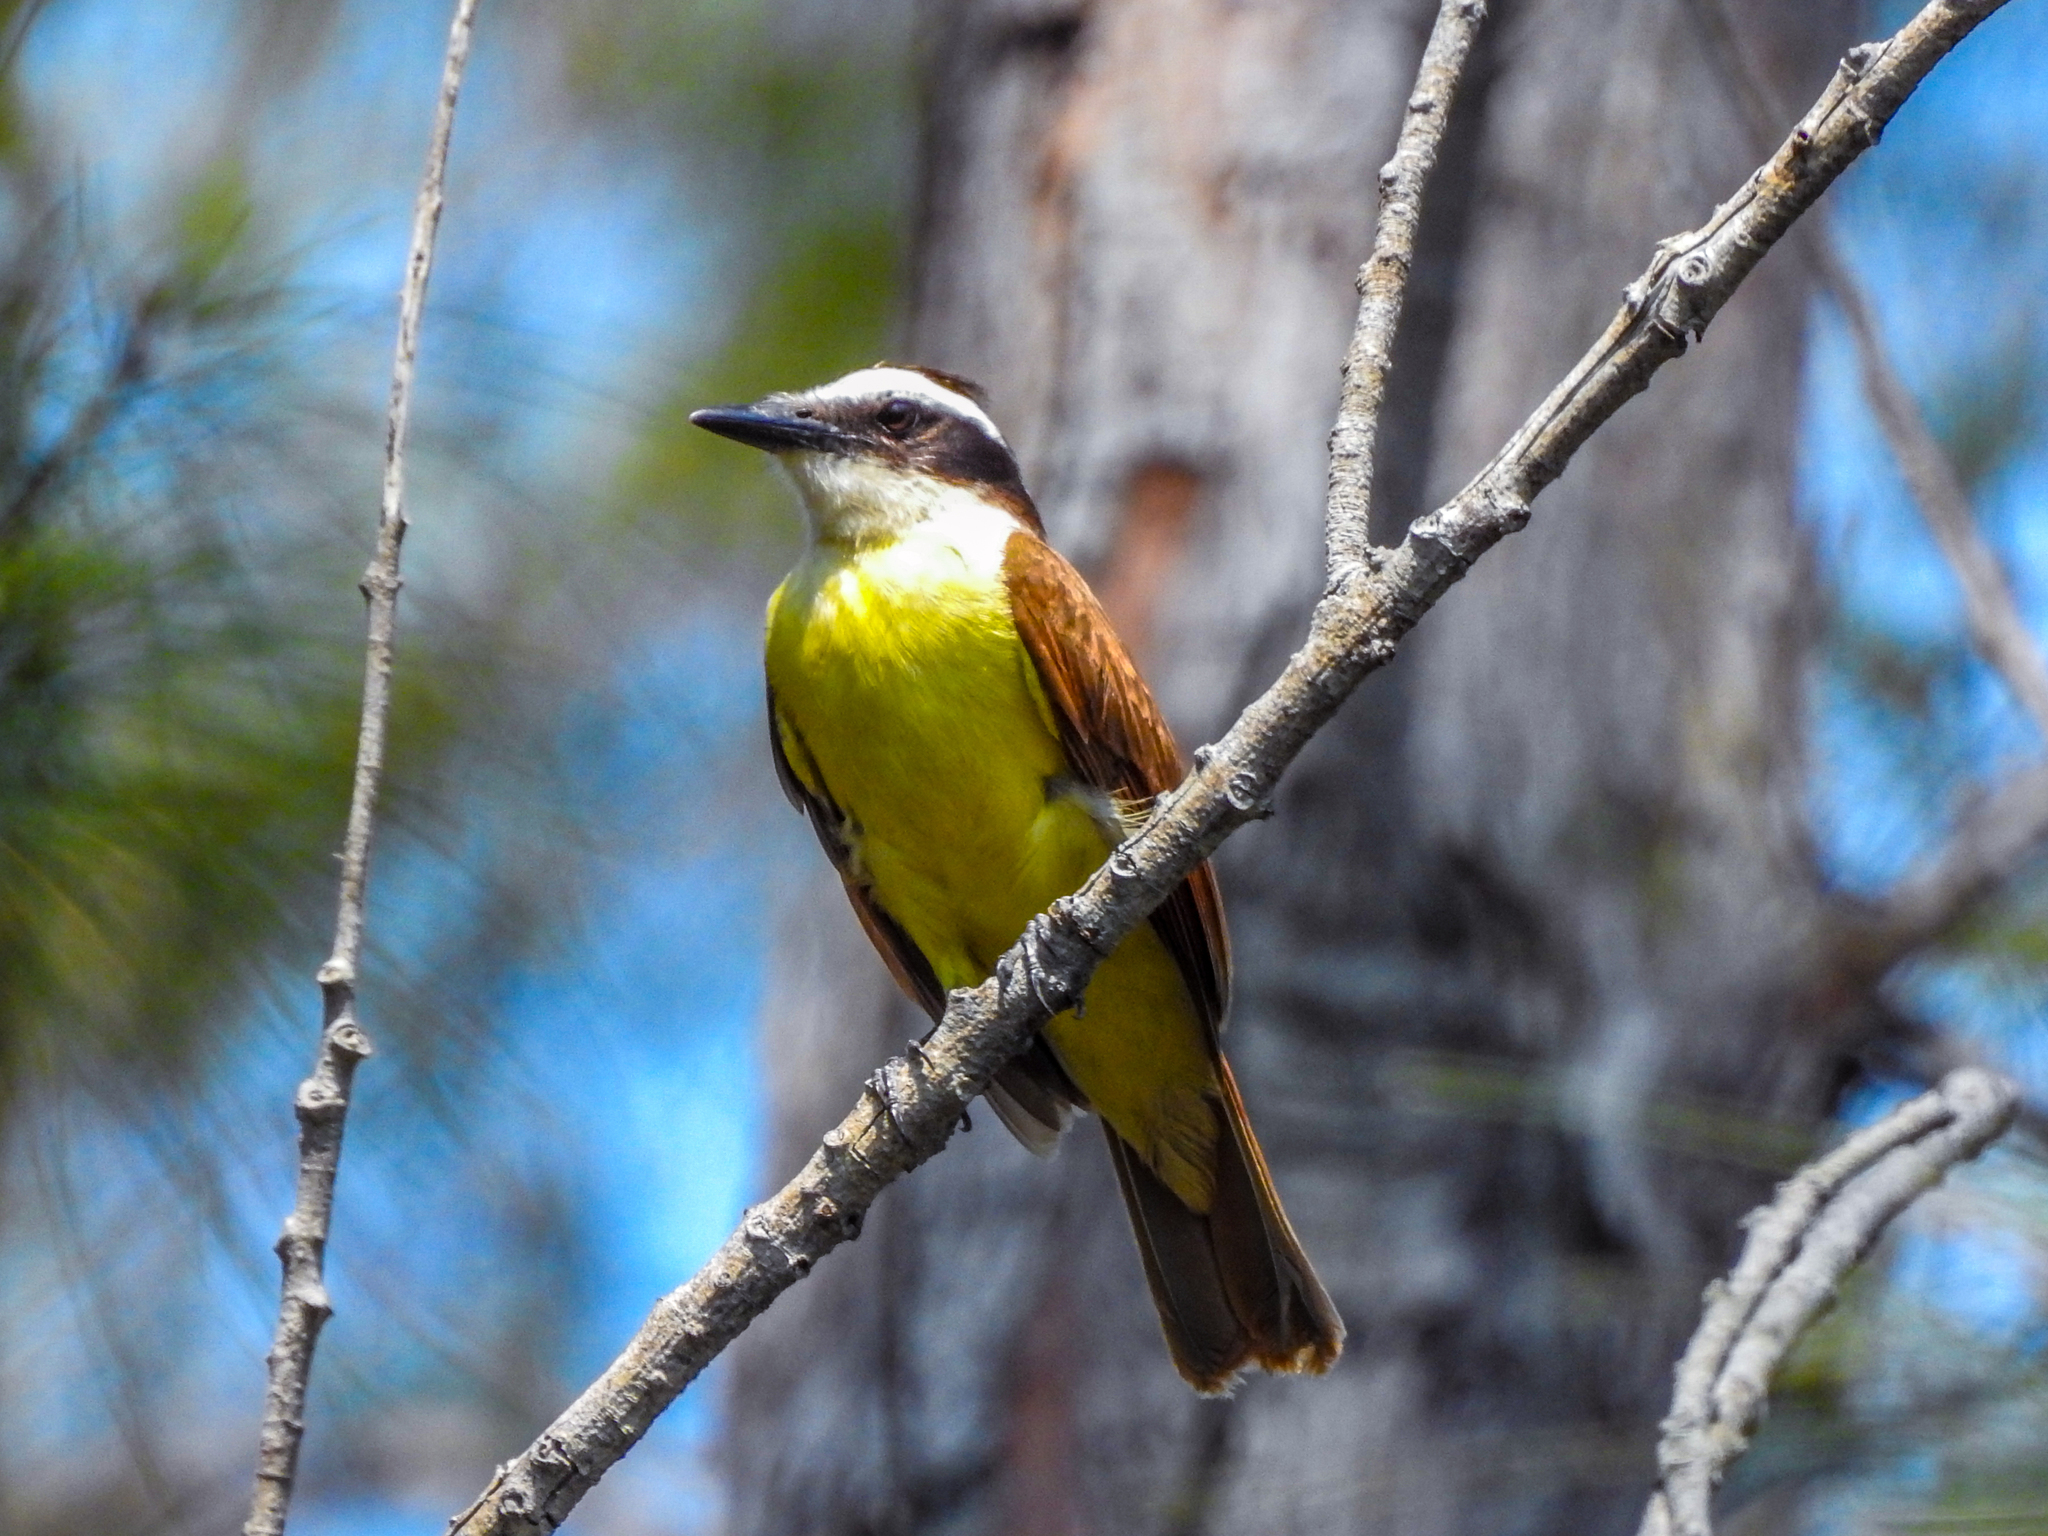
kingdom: Animalia
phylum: Chordata
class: Aves
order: Passeriformes
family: Tyrannidae
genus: Pitangus
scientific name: Pitangus sulphuratus
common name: Great kiskadee
